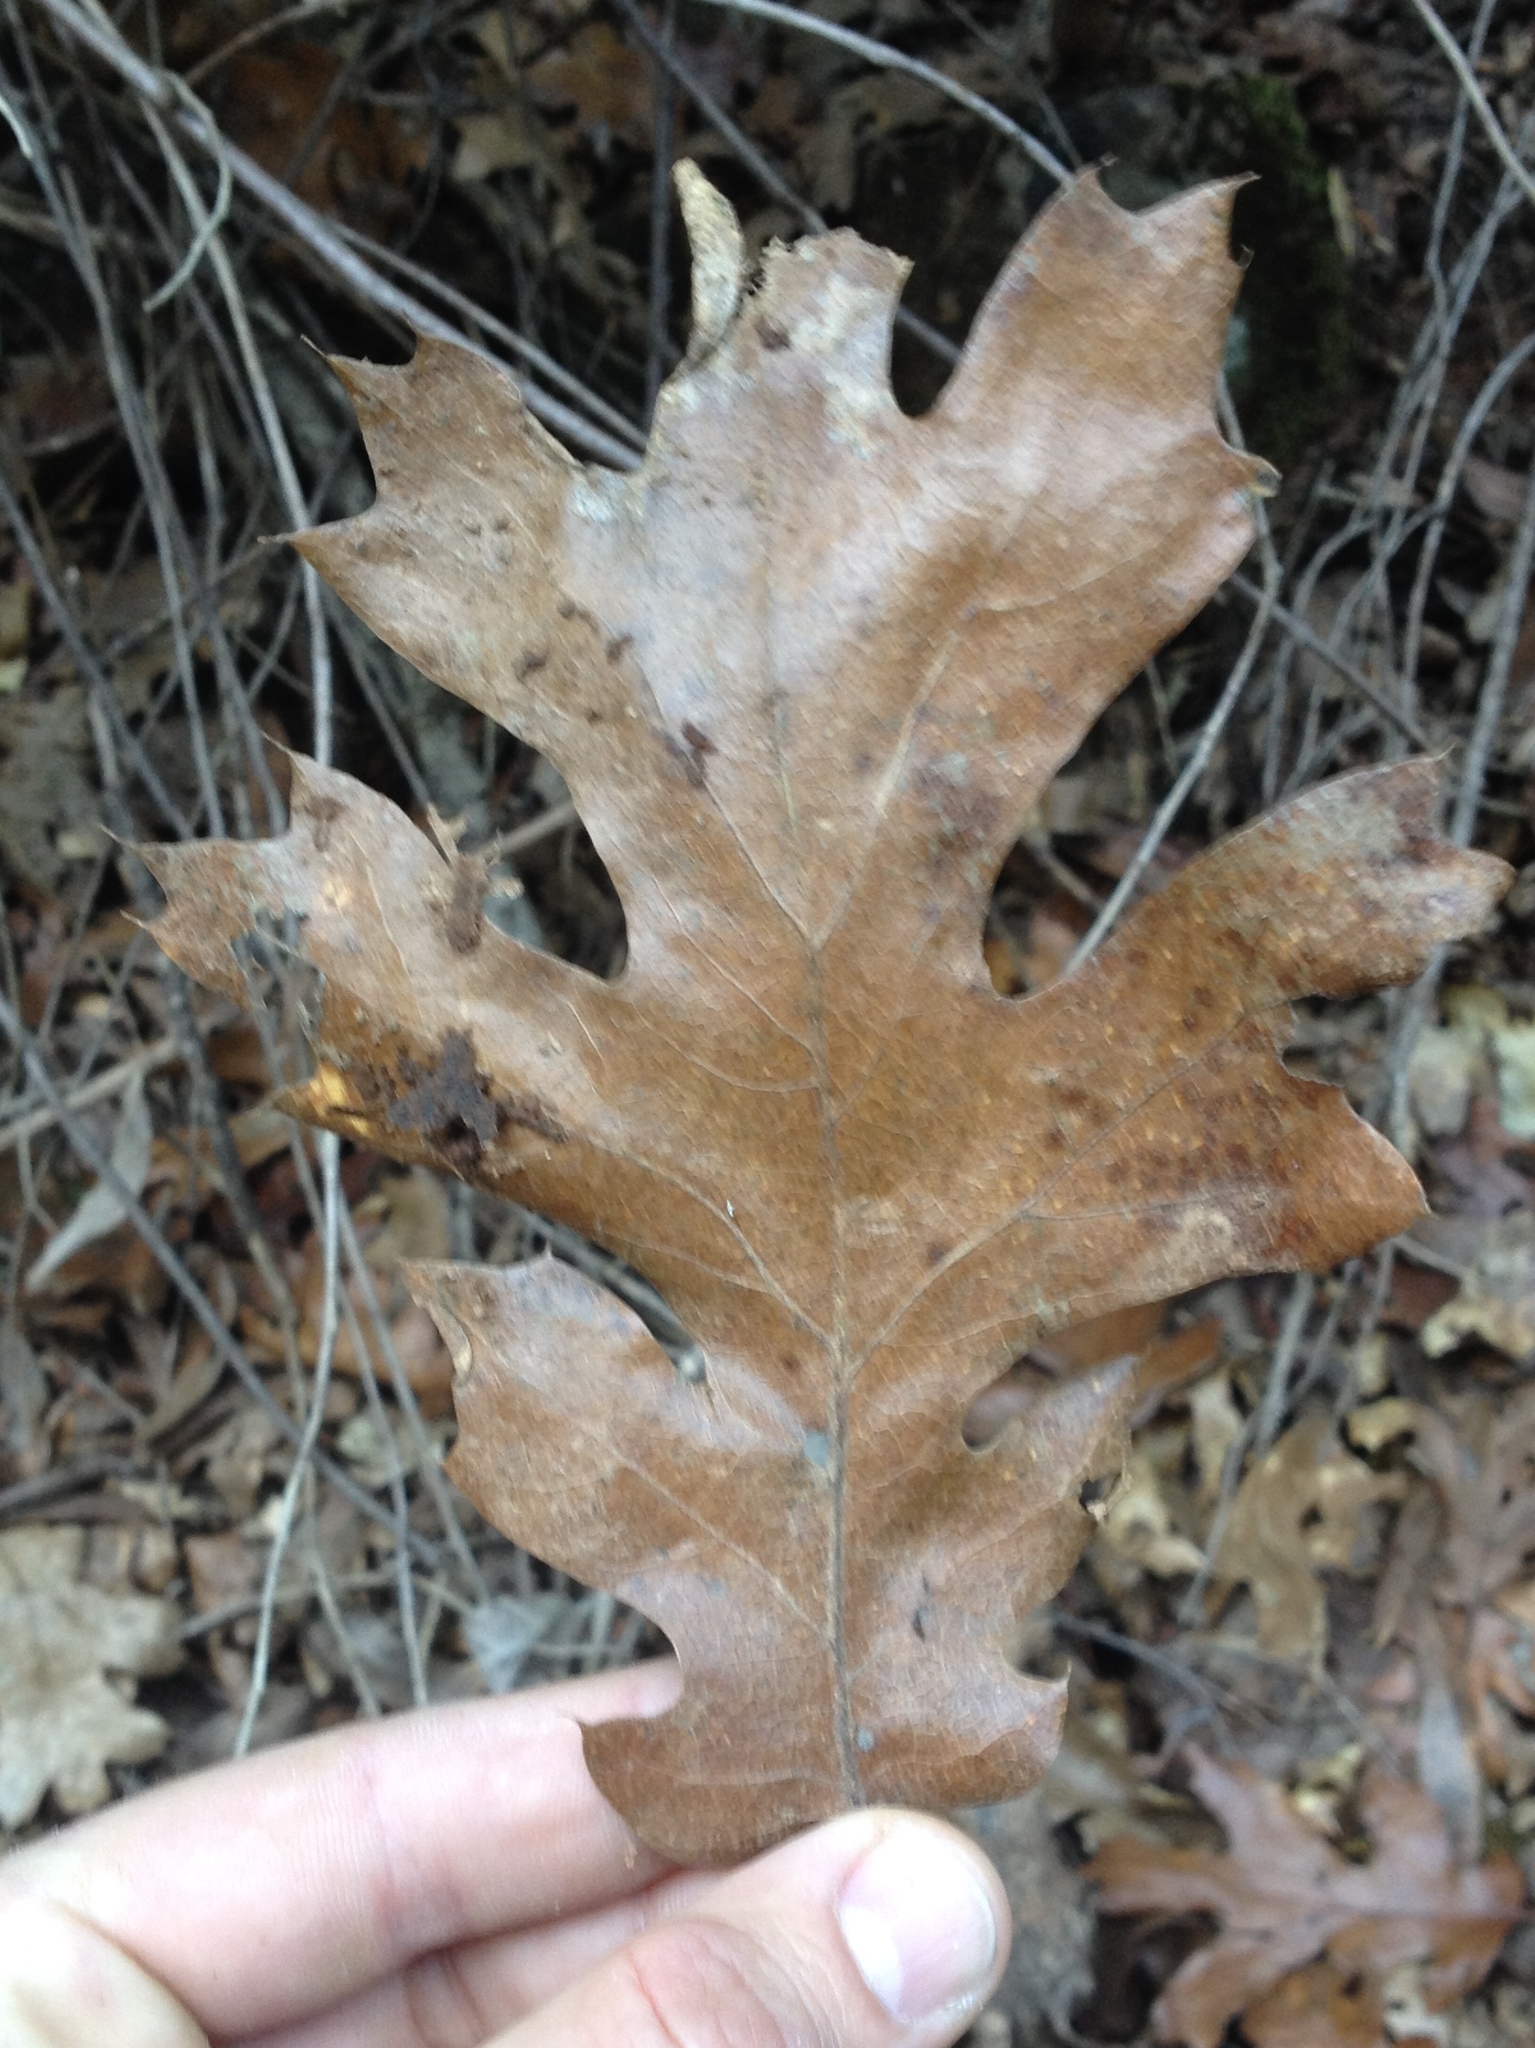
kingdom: Plantae
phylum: Tracheophyta
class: Magnoliopsida
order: Fagales
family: Fagaceae
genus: Quercus
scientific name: Quercus kelloggii
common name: California black oak
